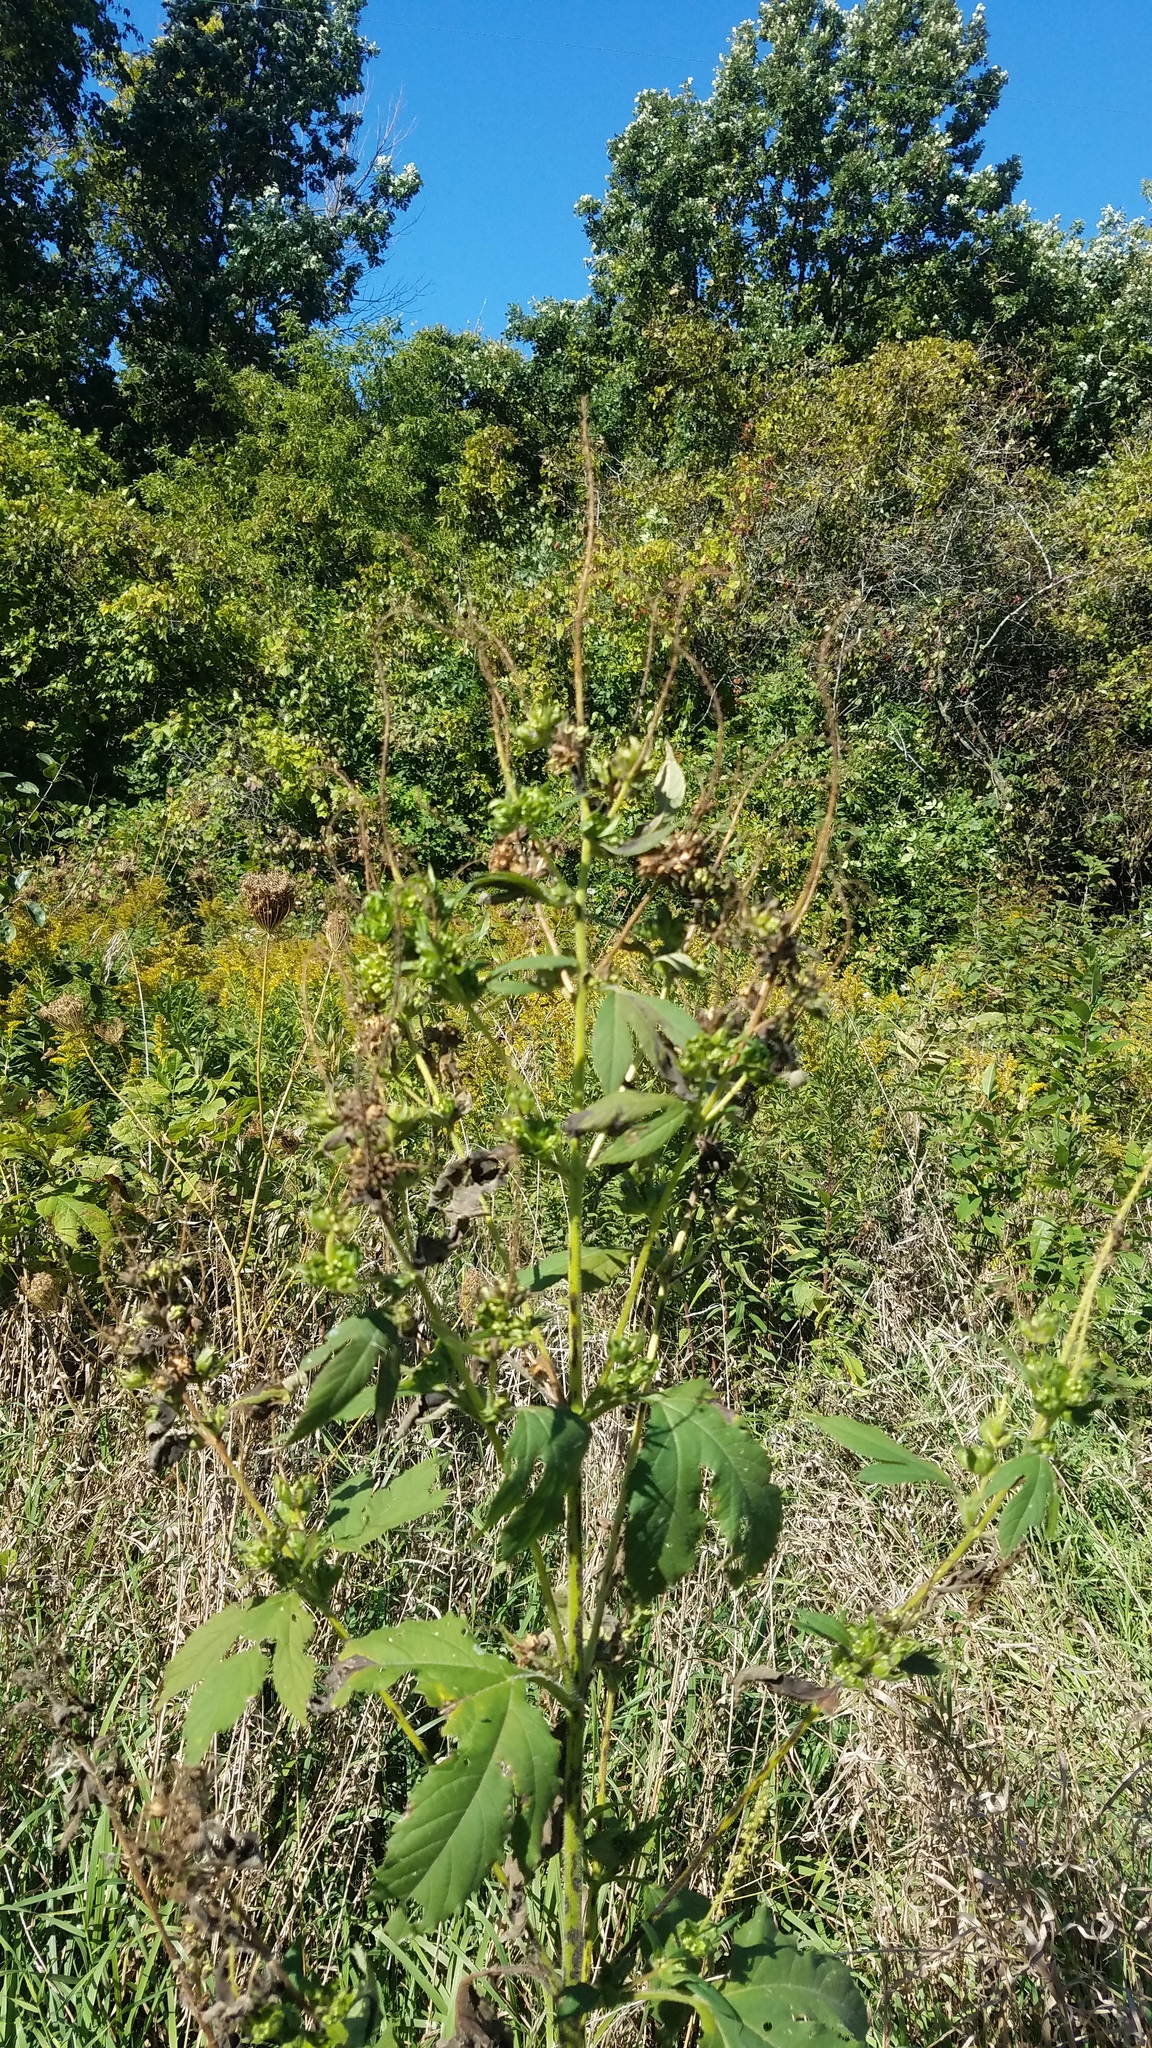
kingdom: Plantae
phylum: Tracheophyta
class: Magnoliopsida
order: Asterales
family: Asteraceae
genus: Ambrosia
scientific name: Ambrosia trifida
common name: Giant ragweed
